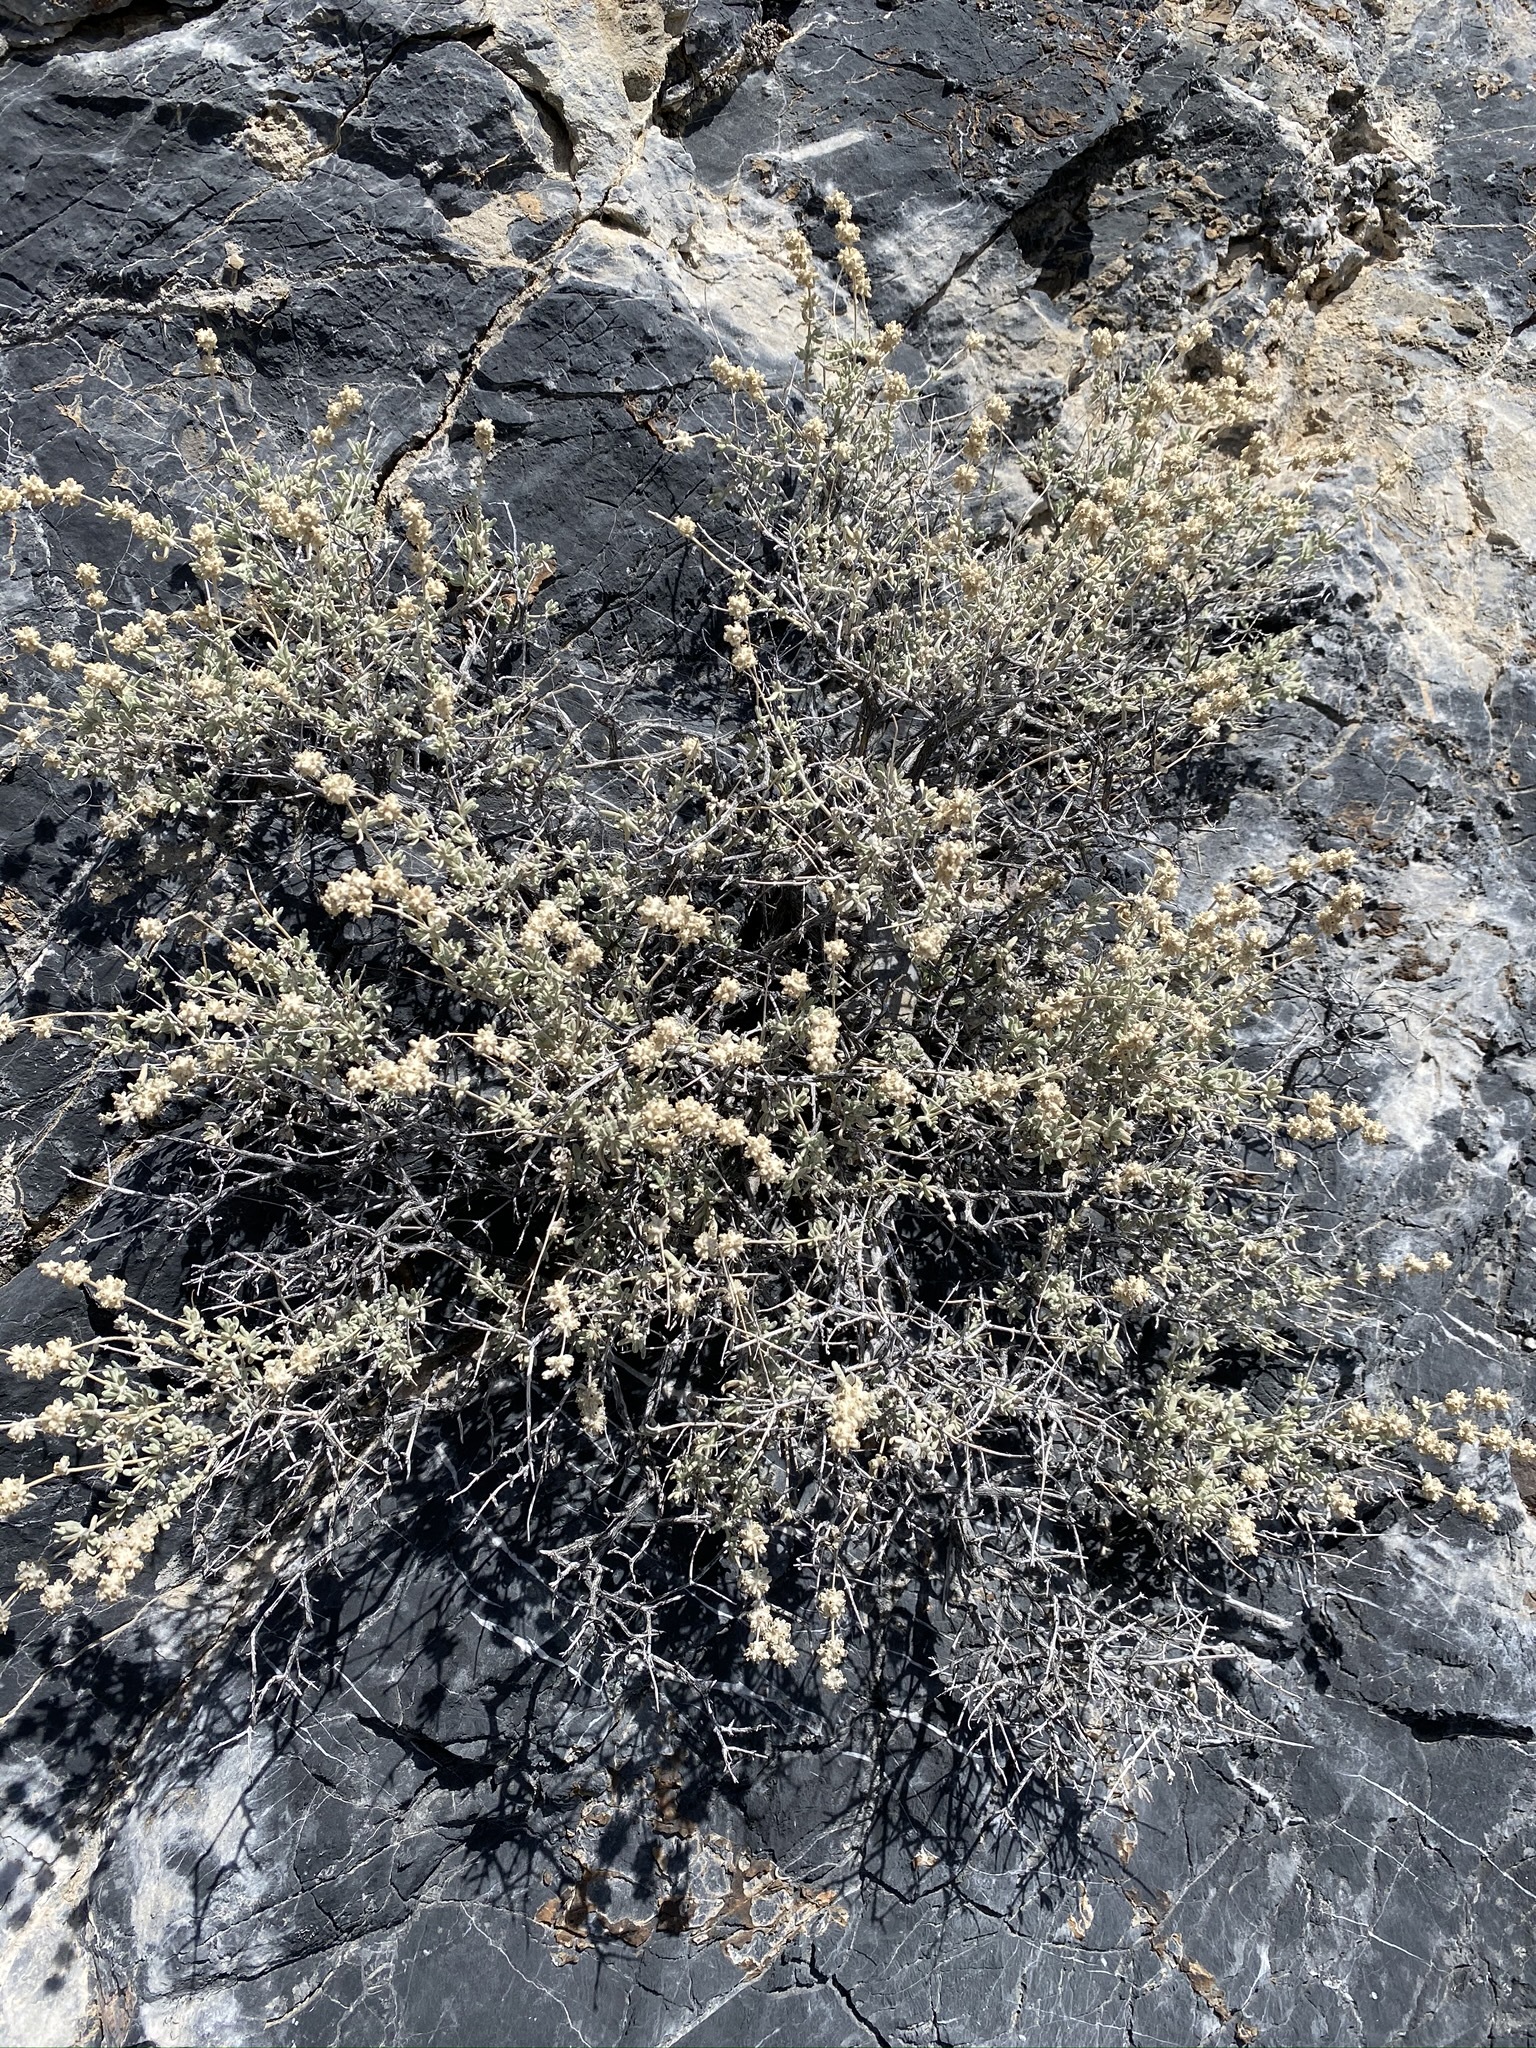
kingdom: Plantae
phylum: Tracheophyta
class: Magnoliopsida
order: Lamiales
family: Scrophulariaceae
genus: Buddleja
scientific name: Buddleja utahensis
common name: Utah butterfly-bush
